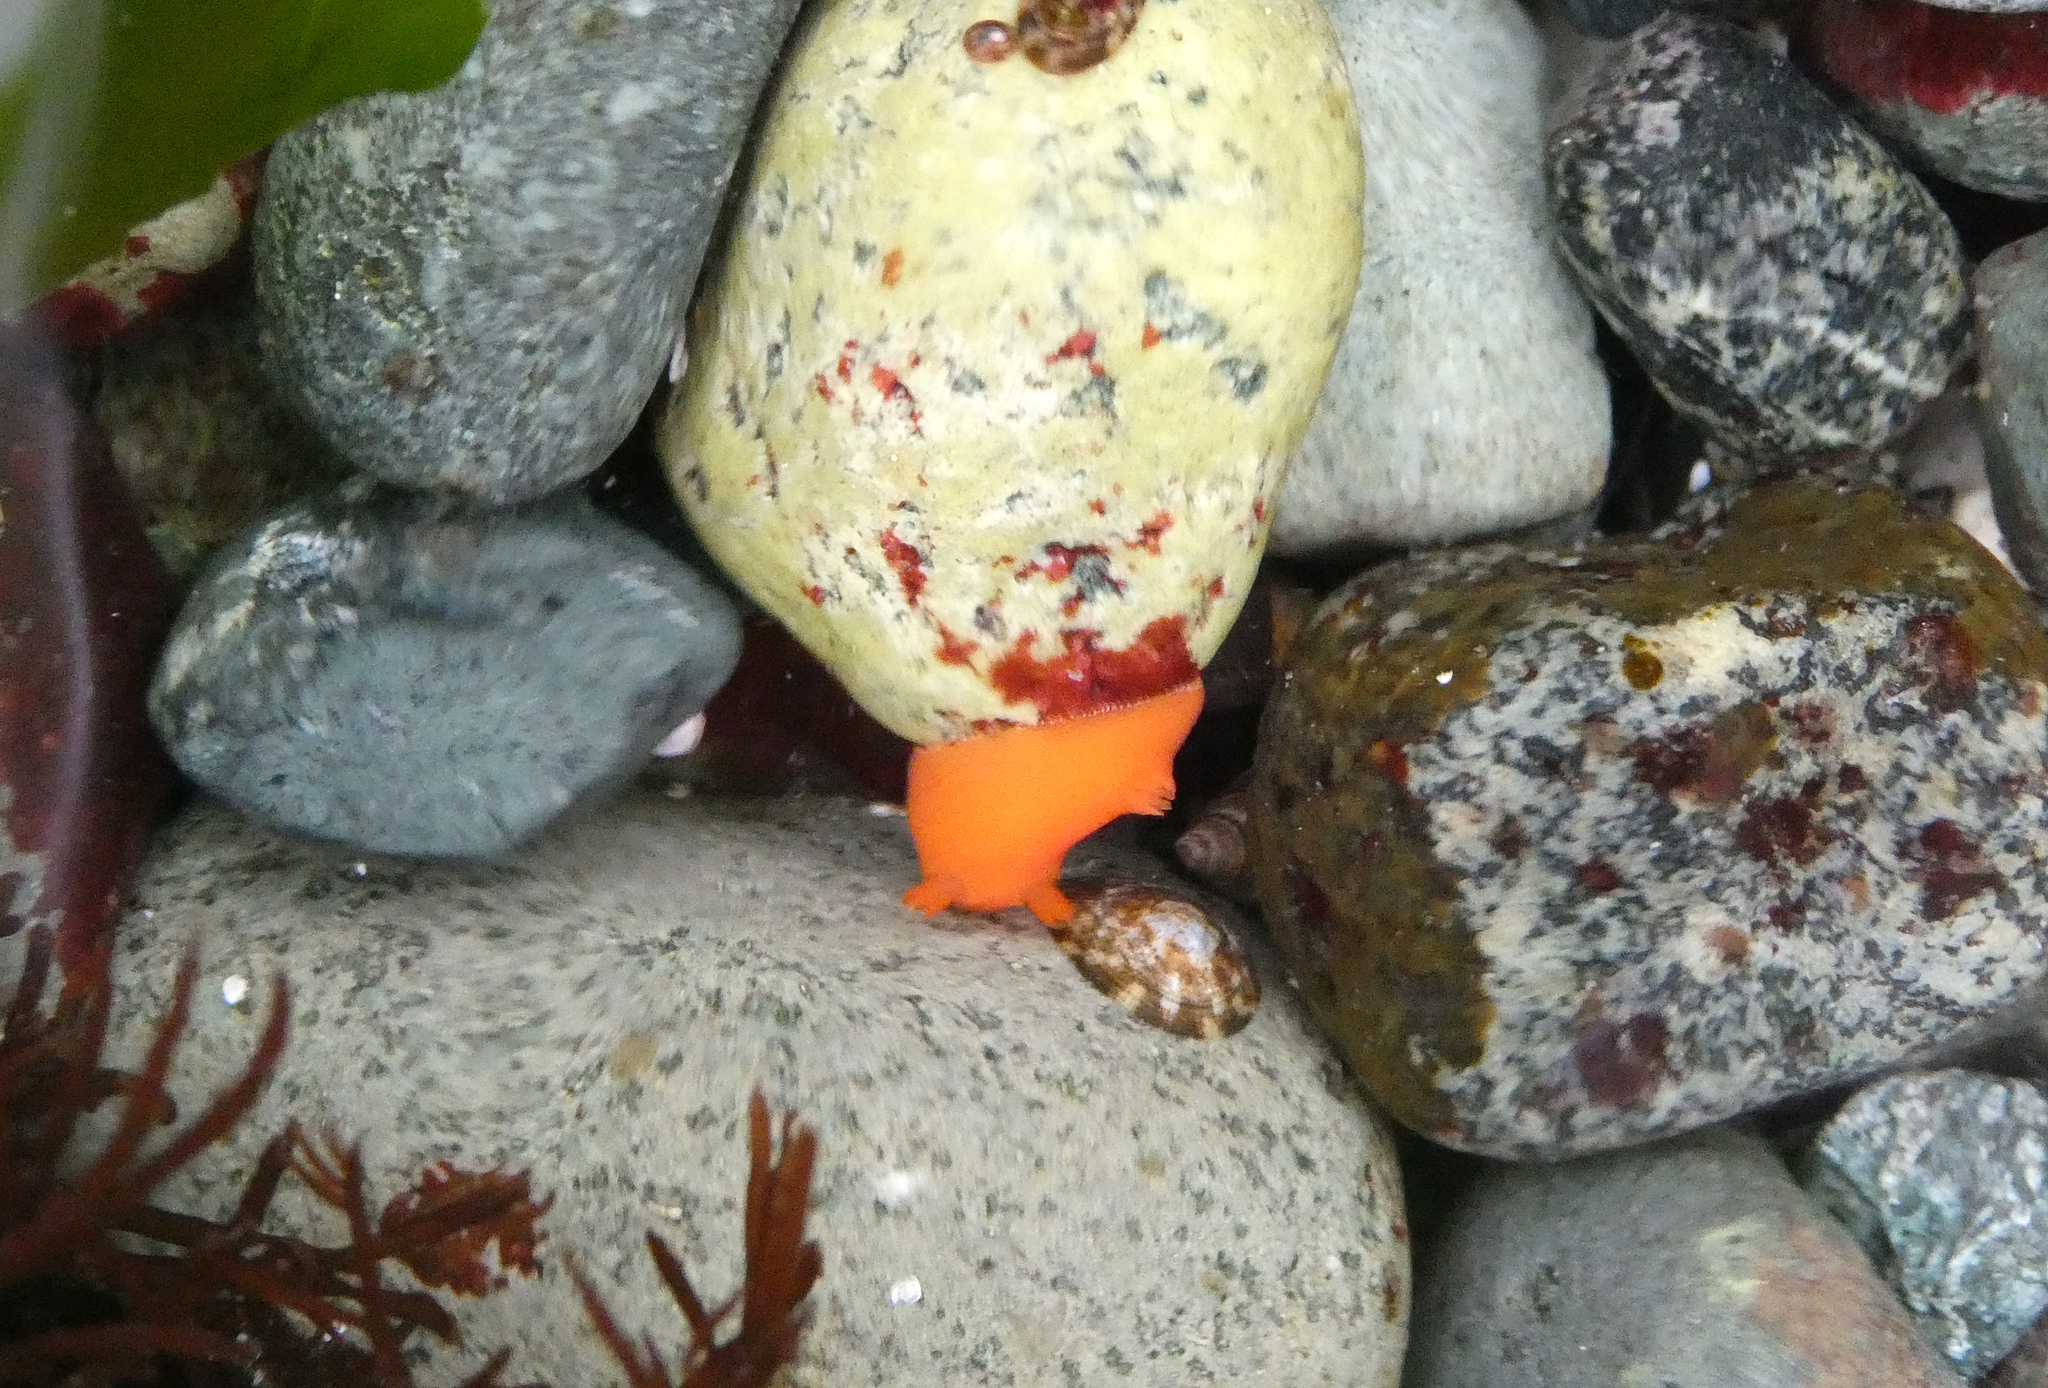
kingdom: Animalia
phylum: Mollusca
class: Gastropoda
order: Nudibranchia
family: Discodorididae
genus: Rostanga
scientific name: Rostanga pulchra
